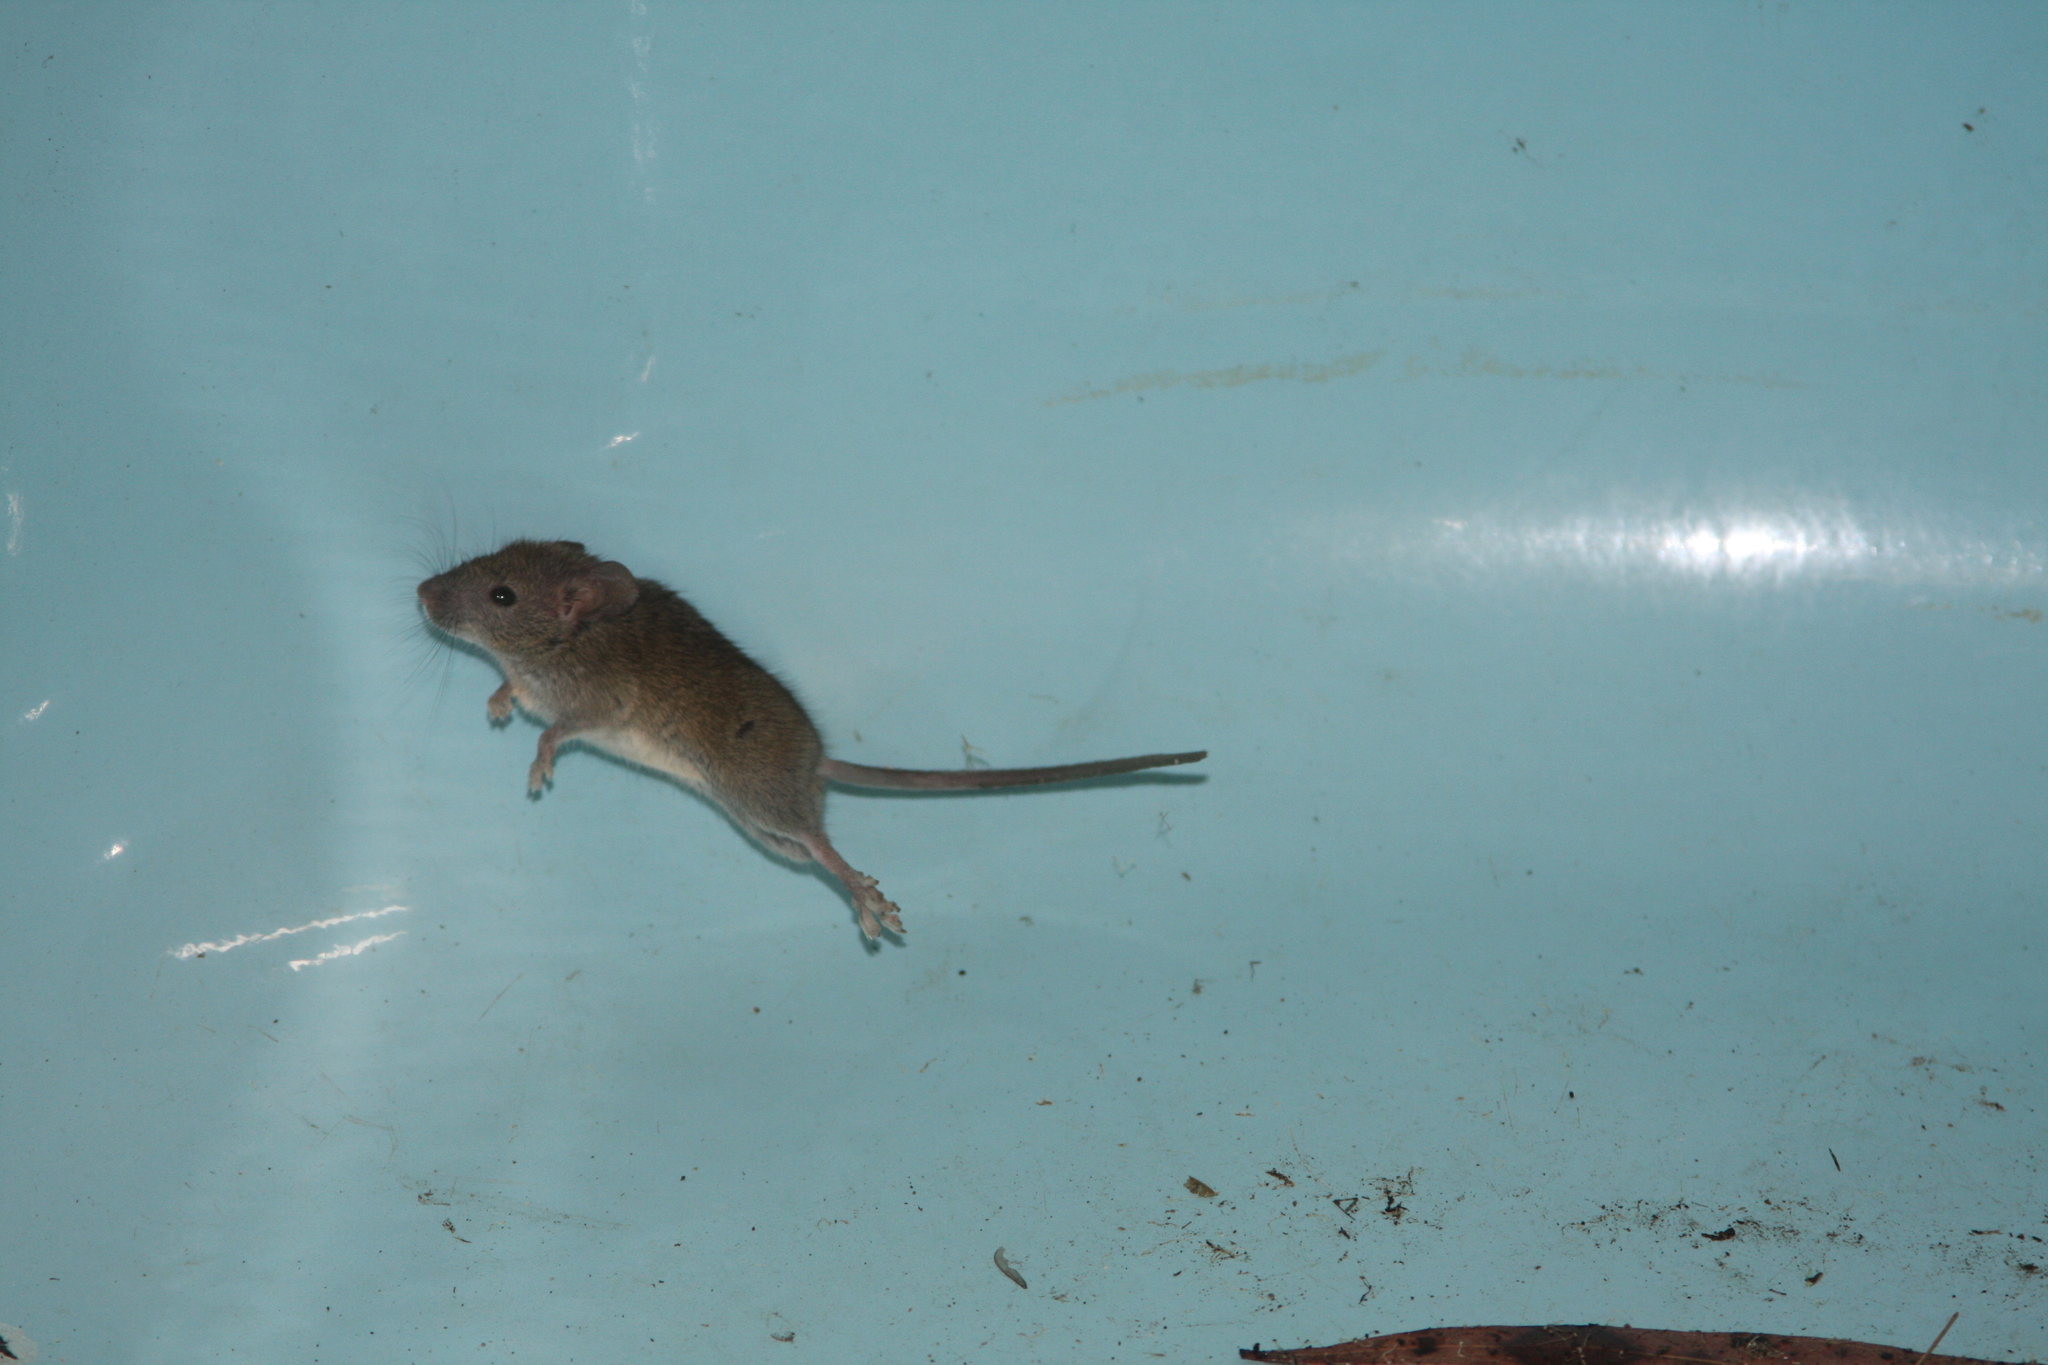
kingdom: Animalia
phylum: Chordata
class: Mammalia
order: Rodentia
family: Muridae
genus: Mus
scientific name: Mus musculus
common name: House mouse
